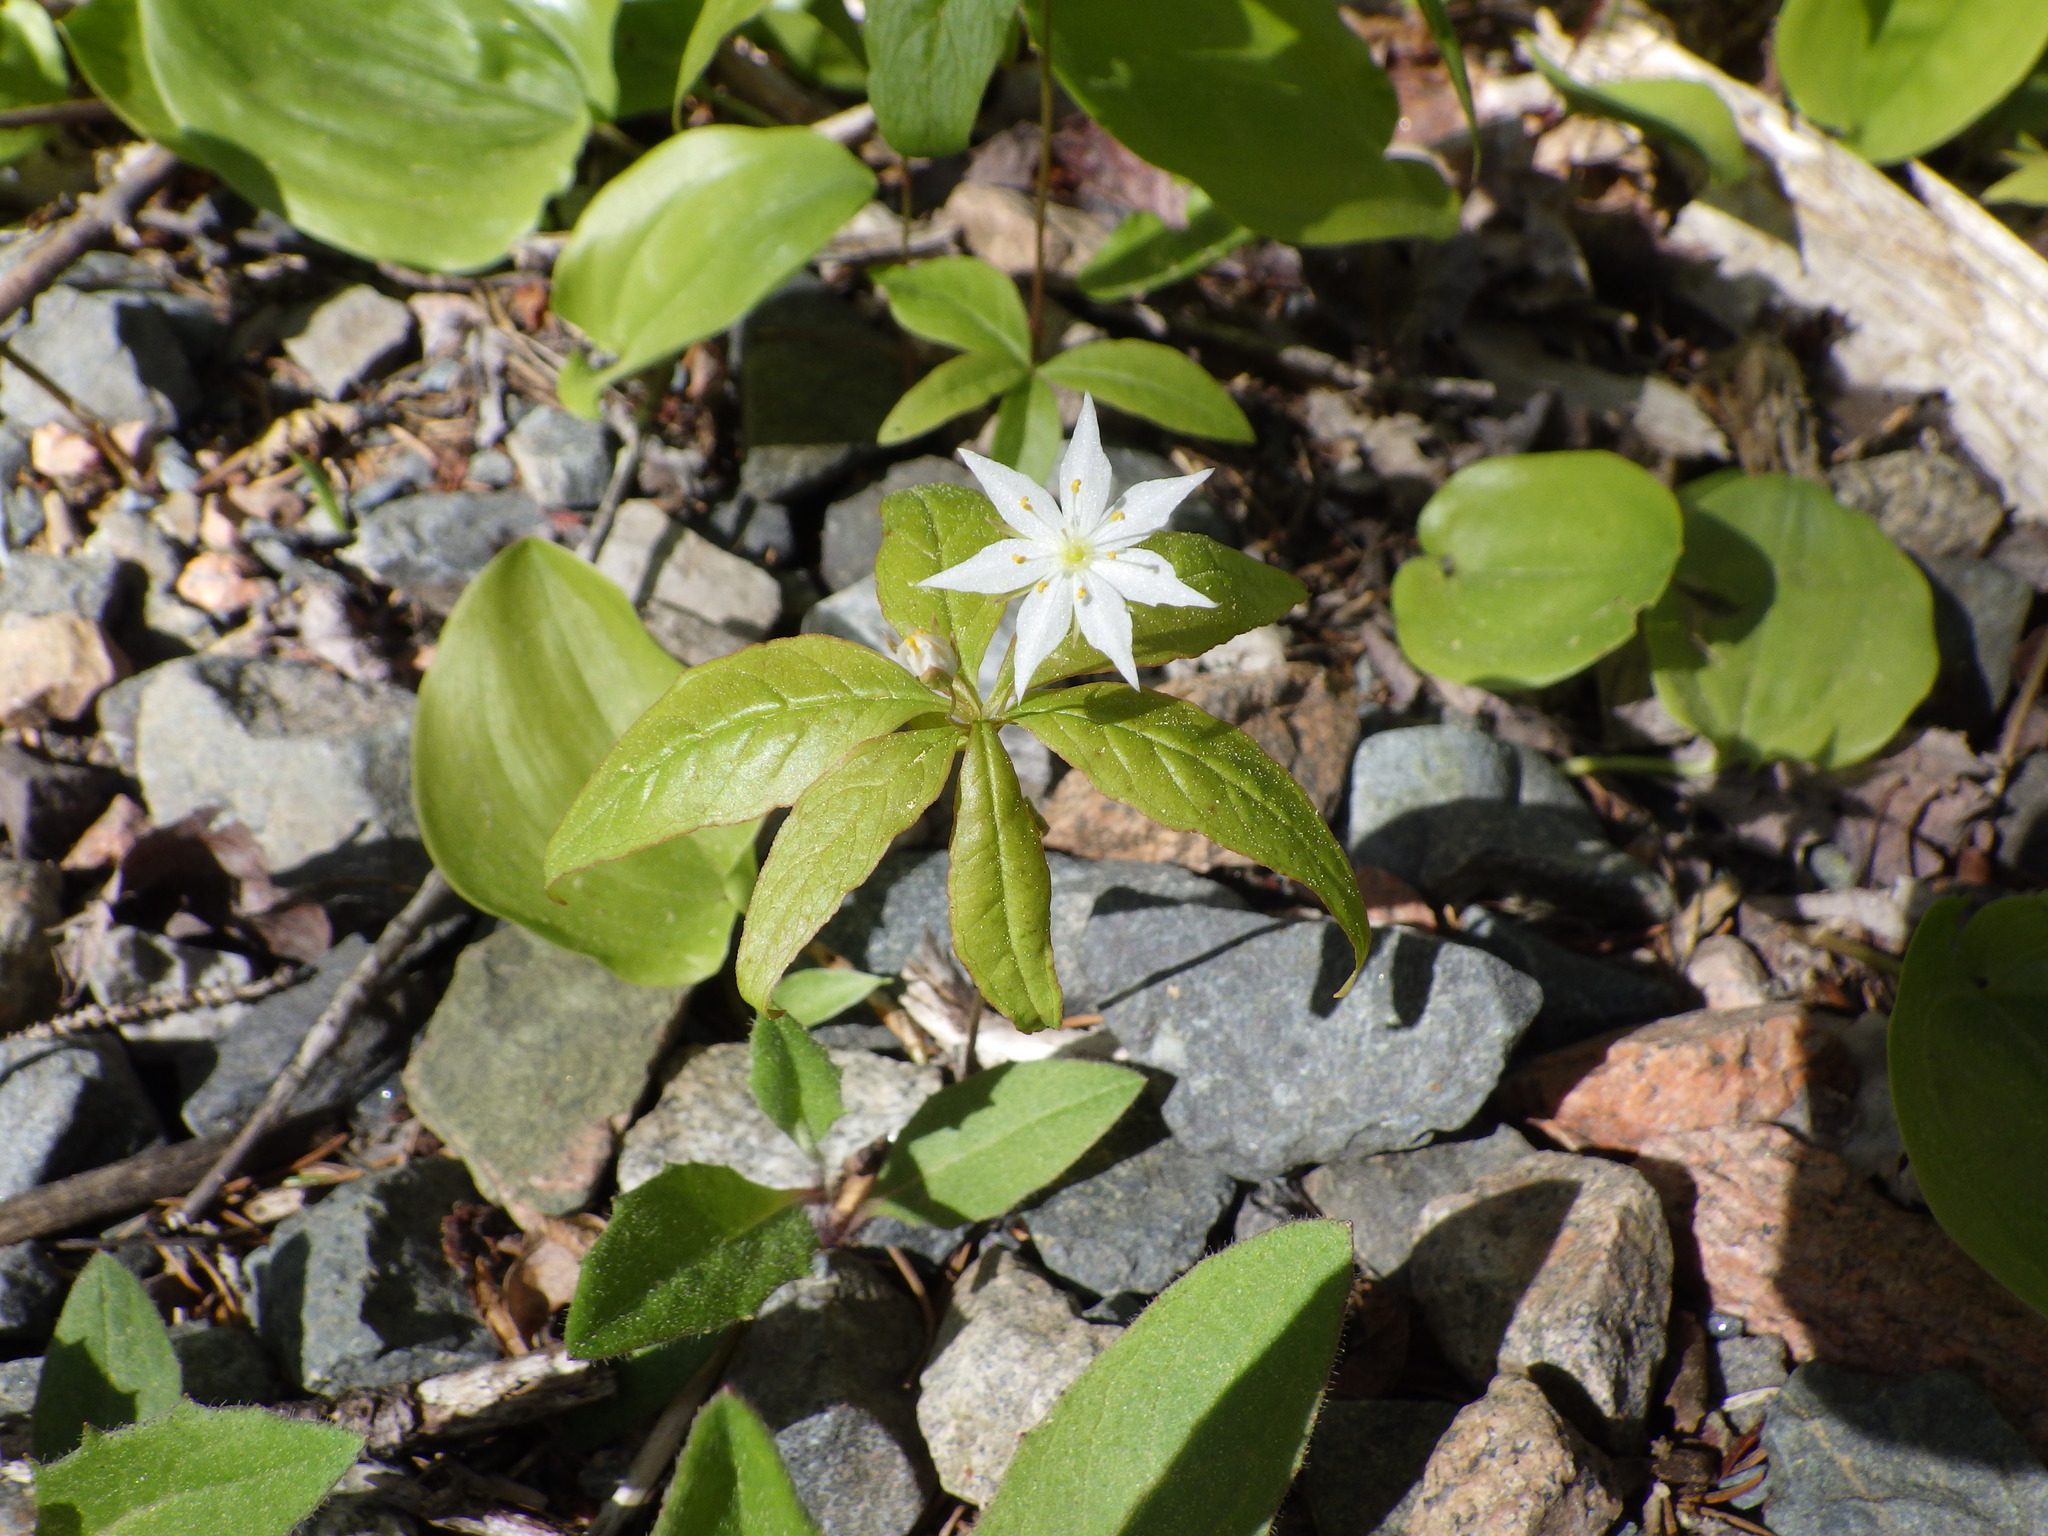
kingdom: Plantae
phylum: Tracheophyta
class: Magnoliopsida
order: Ericales
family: Primulaceae
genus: Lysimachia
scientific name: Lysimachia borealis
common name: American starflower
